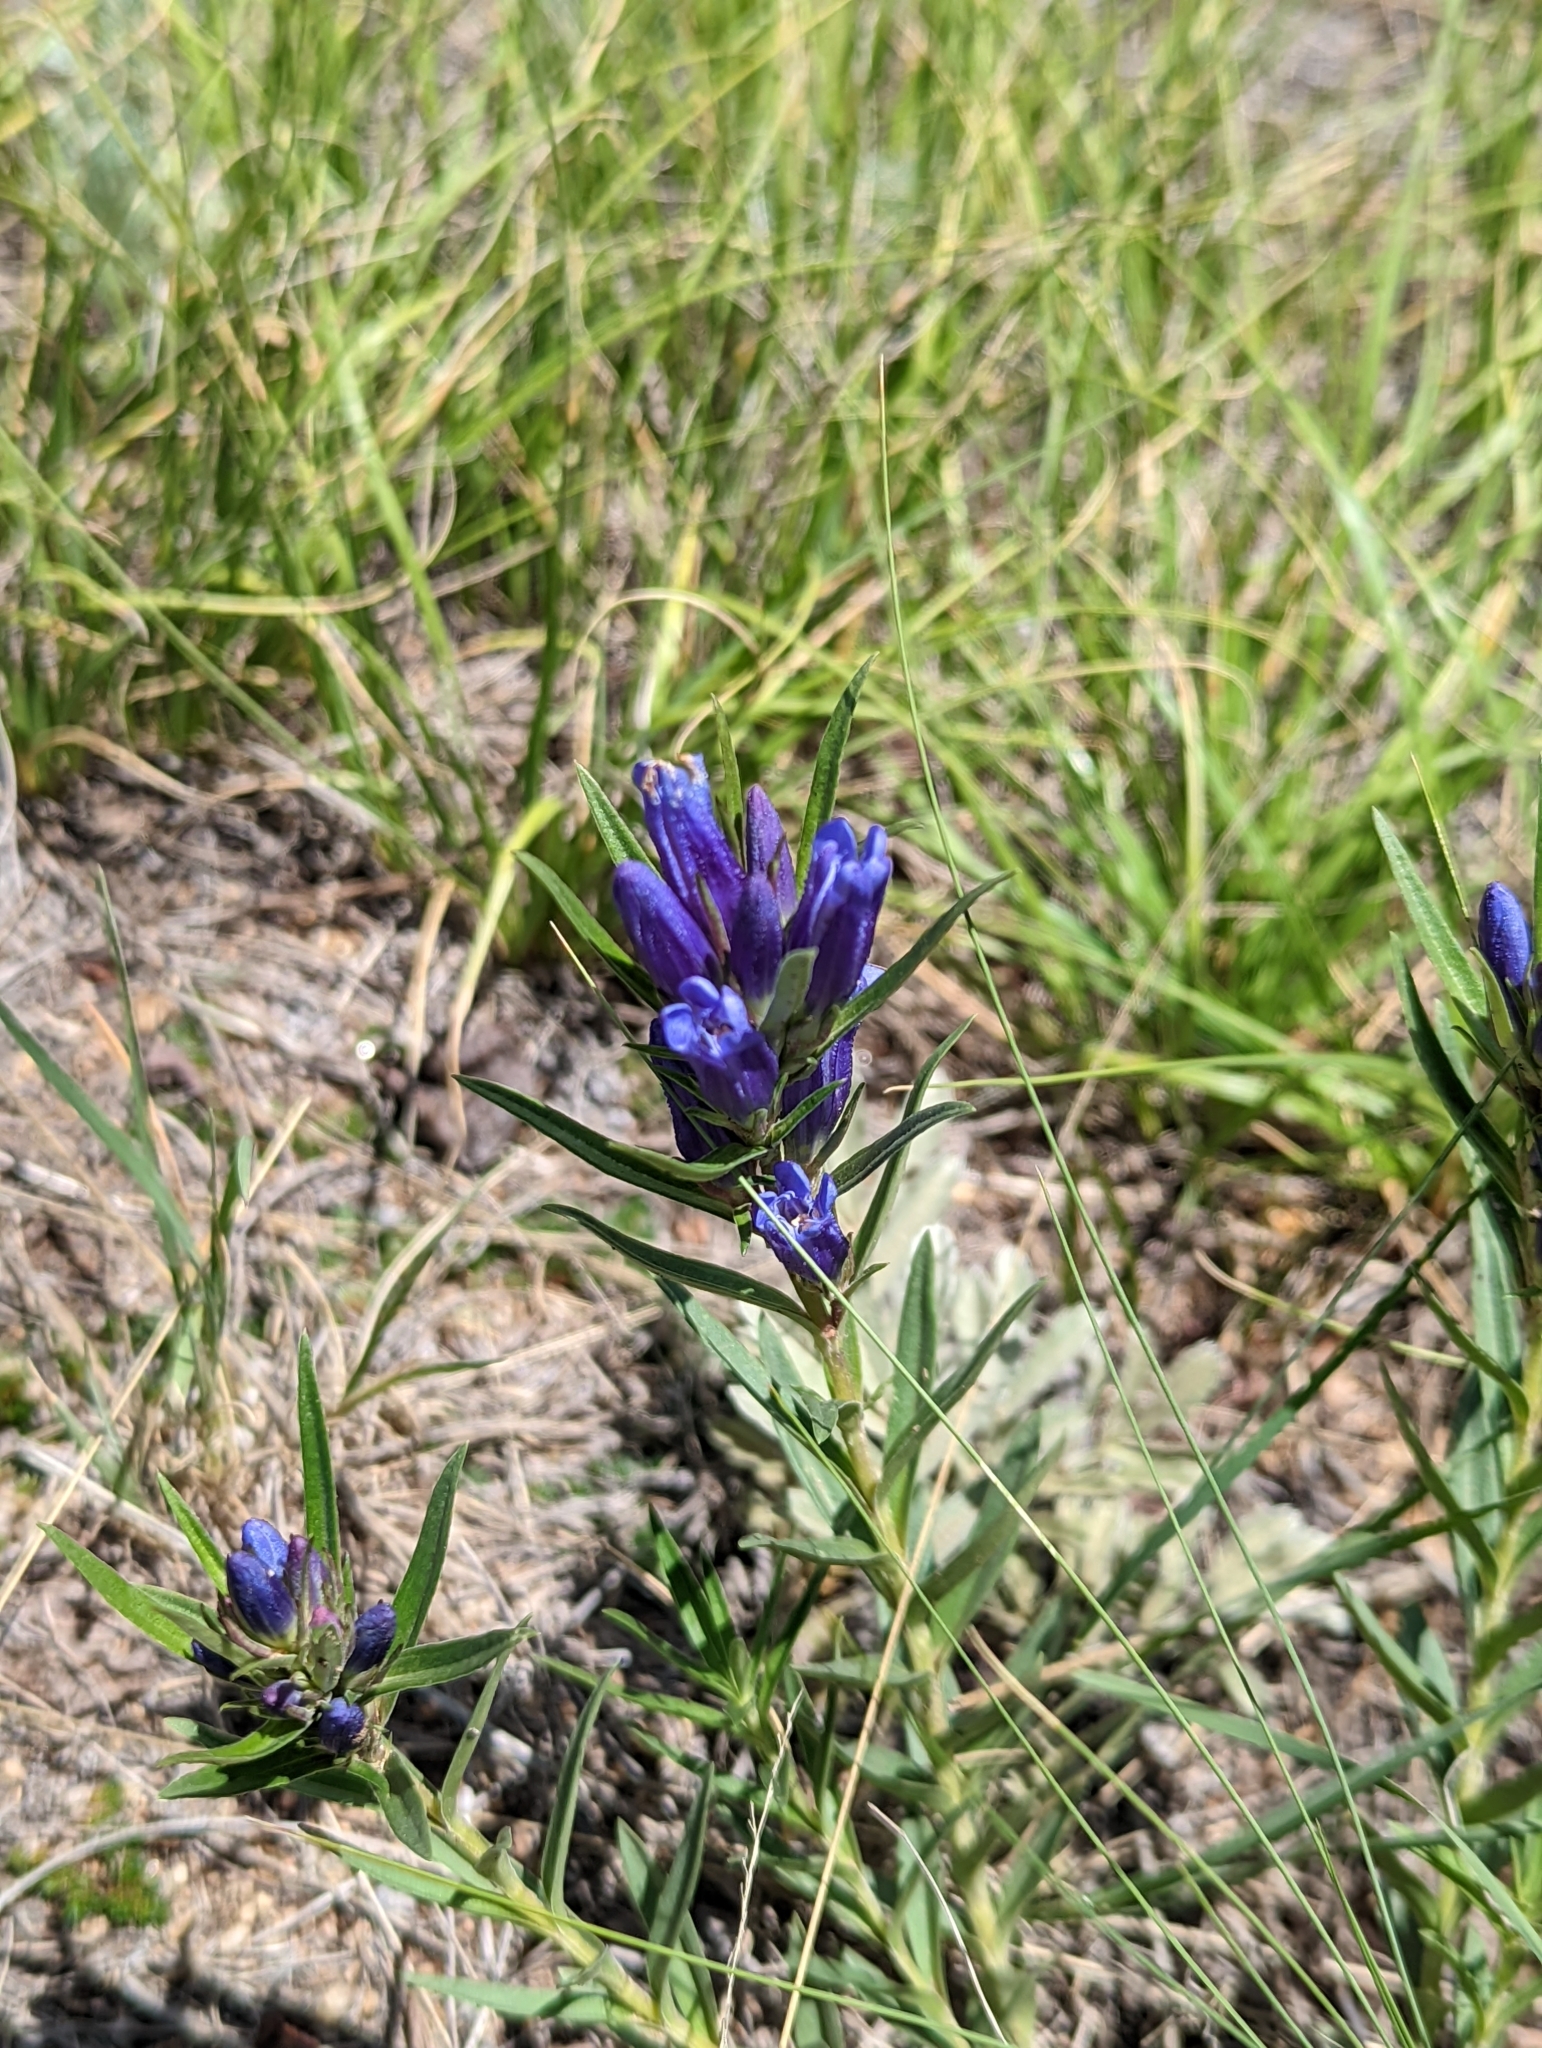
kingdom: Plantae
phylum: Tracheophyta
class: Magnoliopsida
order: Gentianales
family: Gentianaceae
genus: Gentiana
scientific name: Gentiana affinis
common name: Rocky mountain gentian
